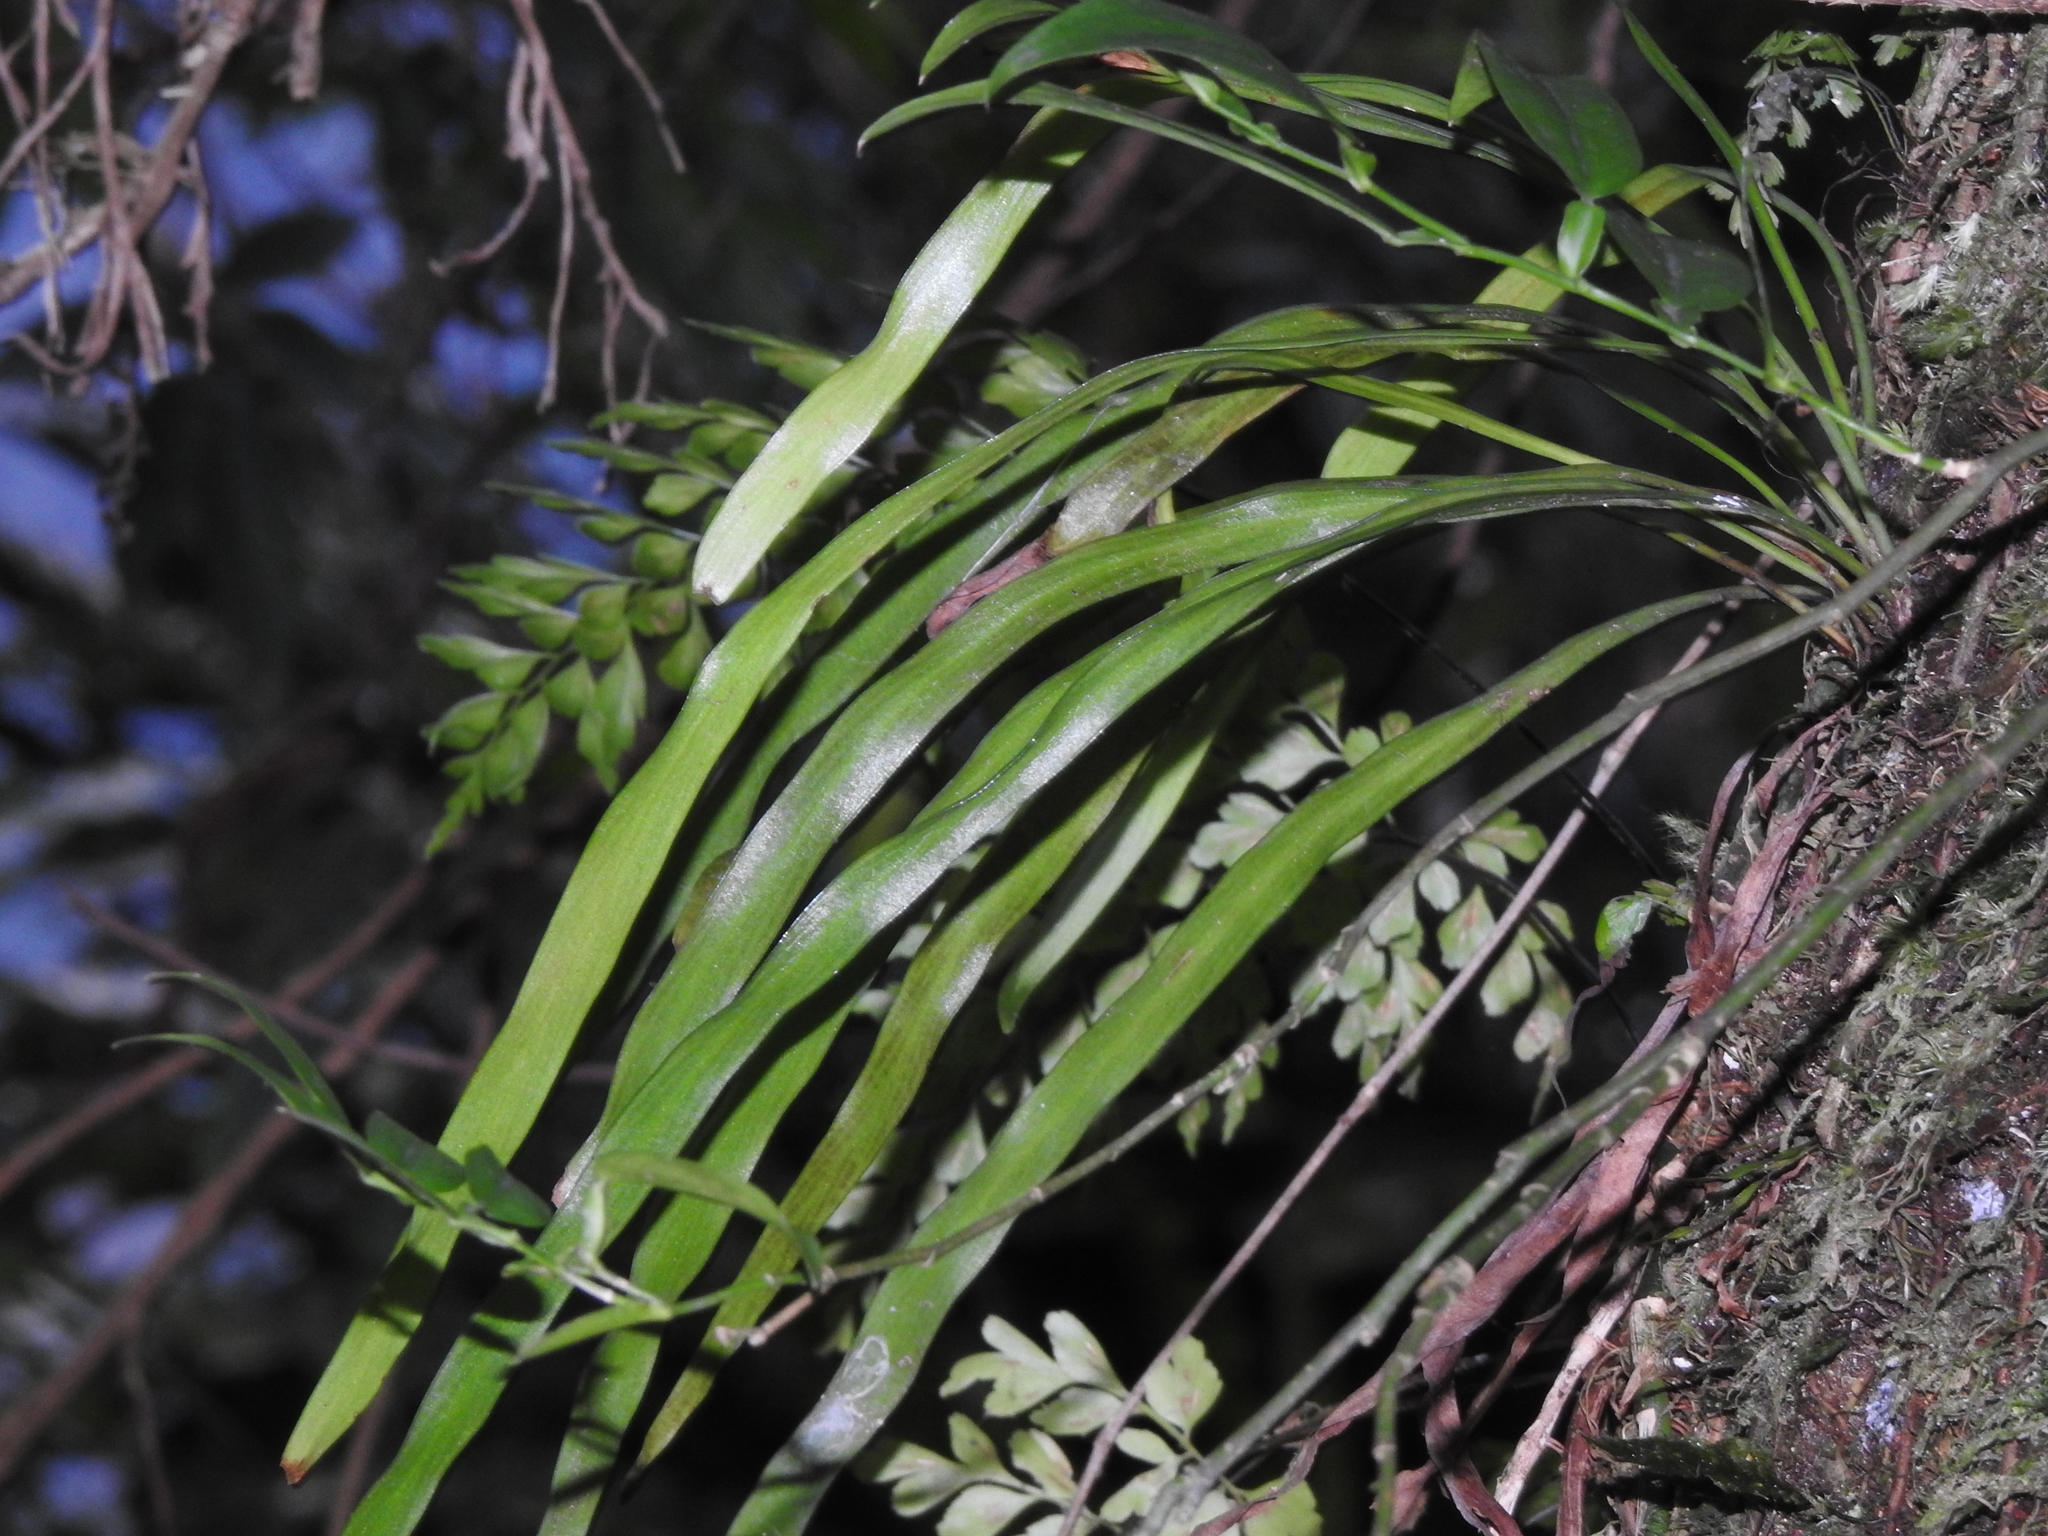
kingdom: Plantae
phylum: Tracheophyta
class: Polypodiopsida
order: Polypodiales
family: Pteridaceae
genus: Haplopteris
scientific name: Haplopteris elongata
